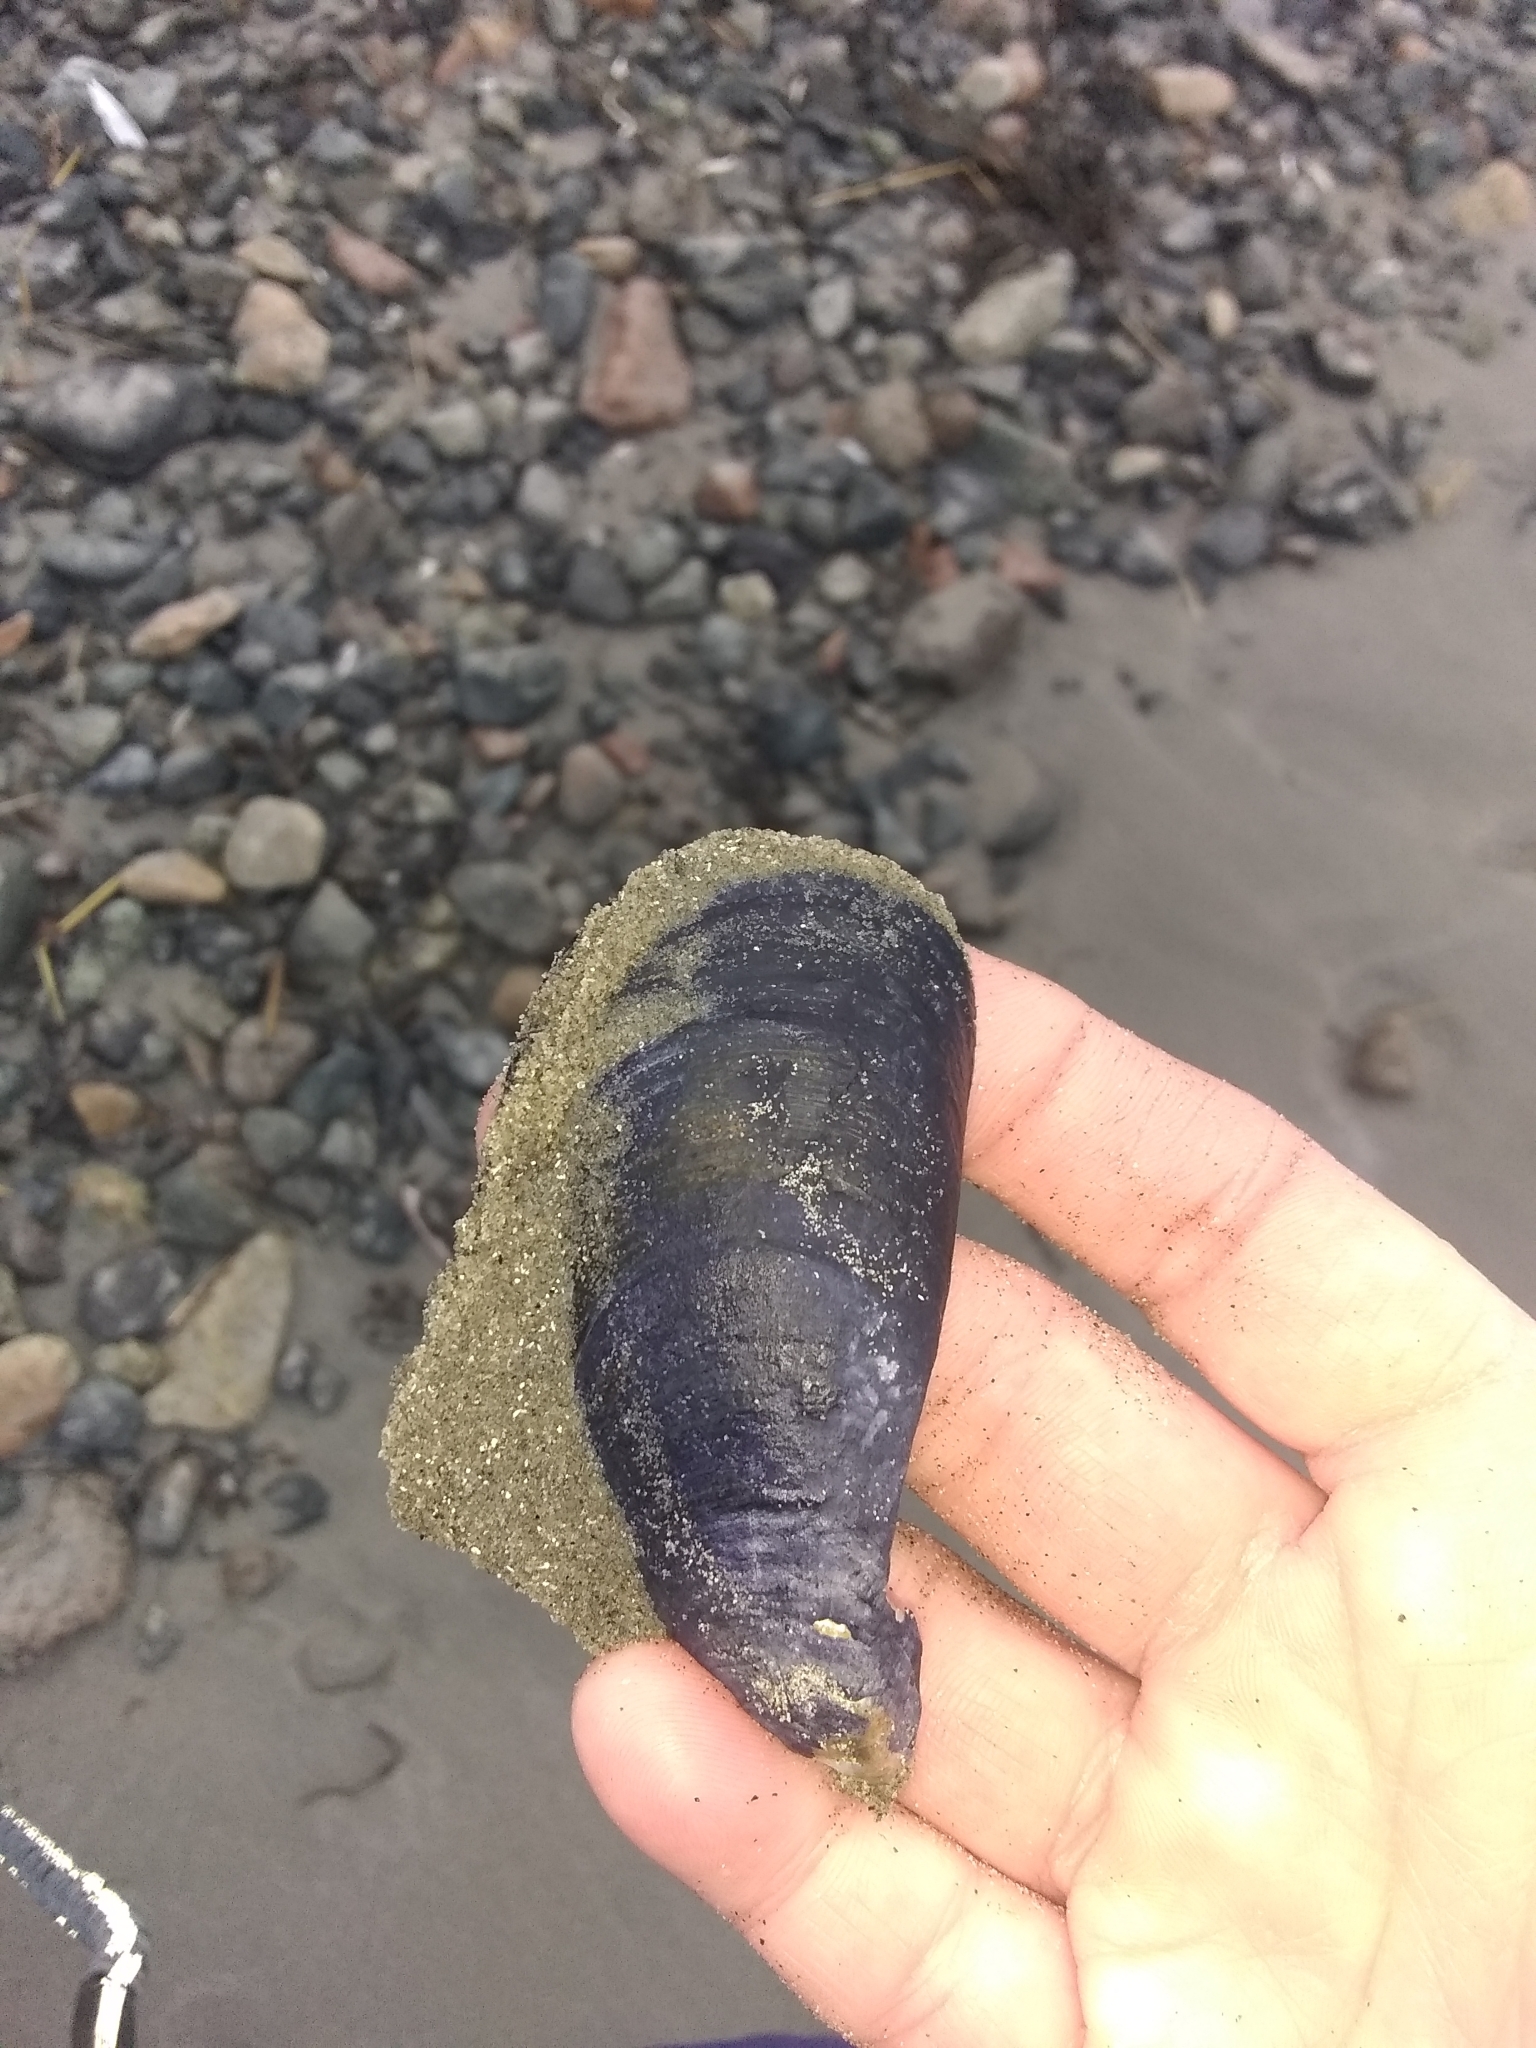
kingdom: Animalia
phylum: Mollusca
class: Bivalvia
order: Mytilida
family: Mytilidae
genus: Mytilus
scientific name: Mytilus edulis
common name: Blue mussel
